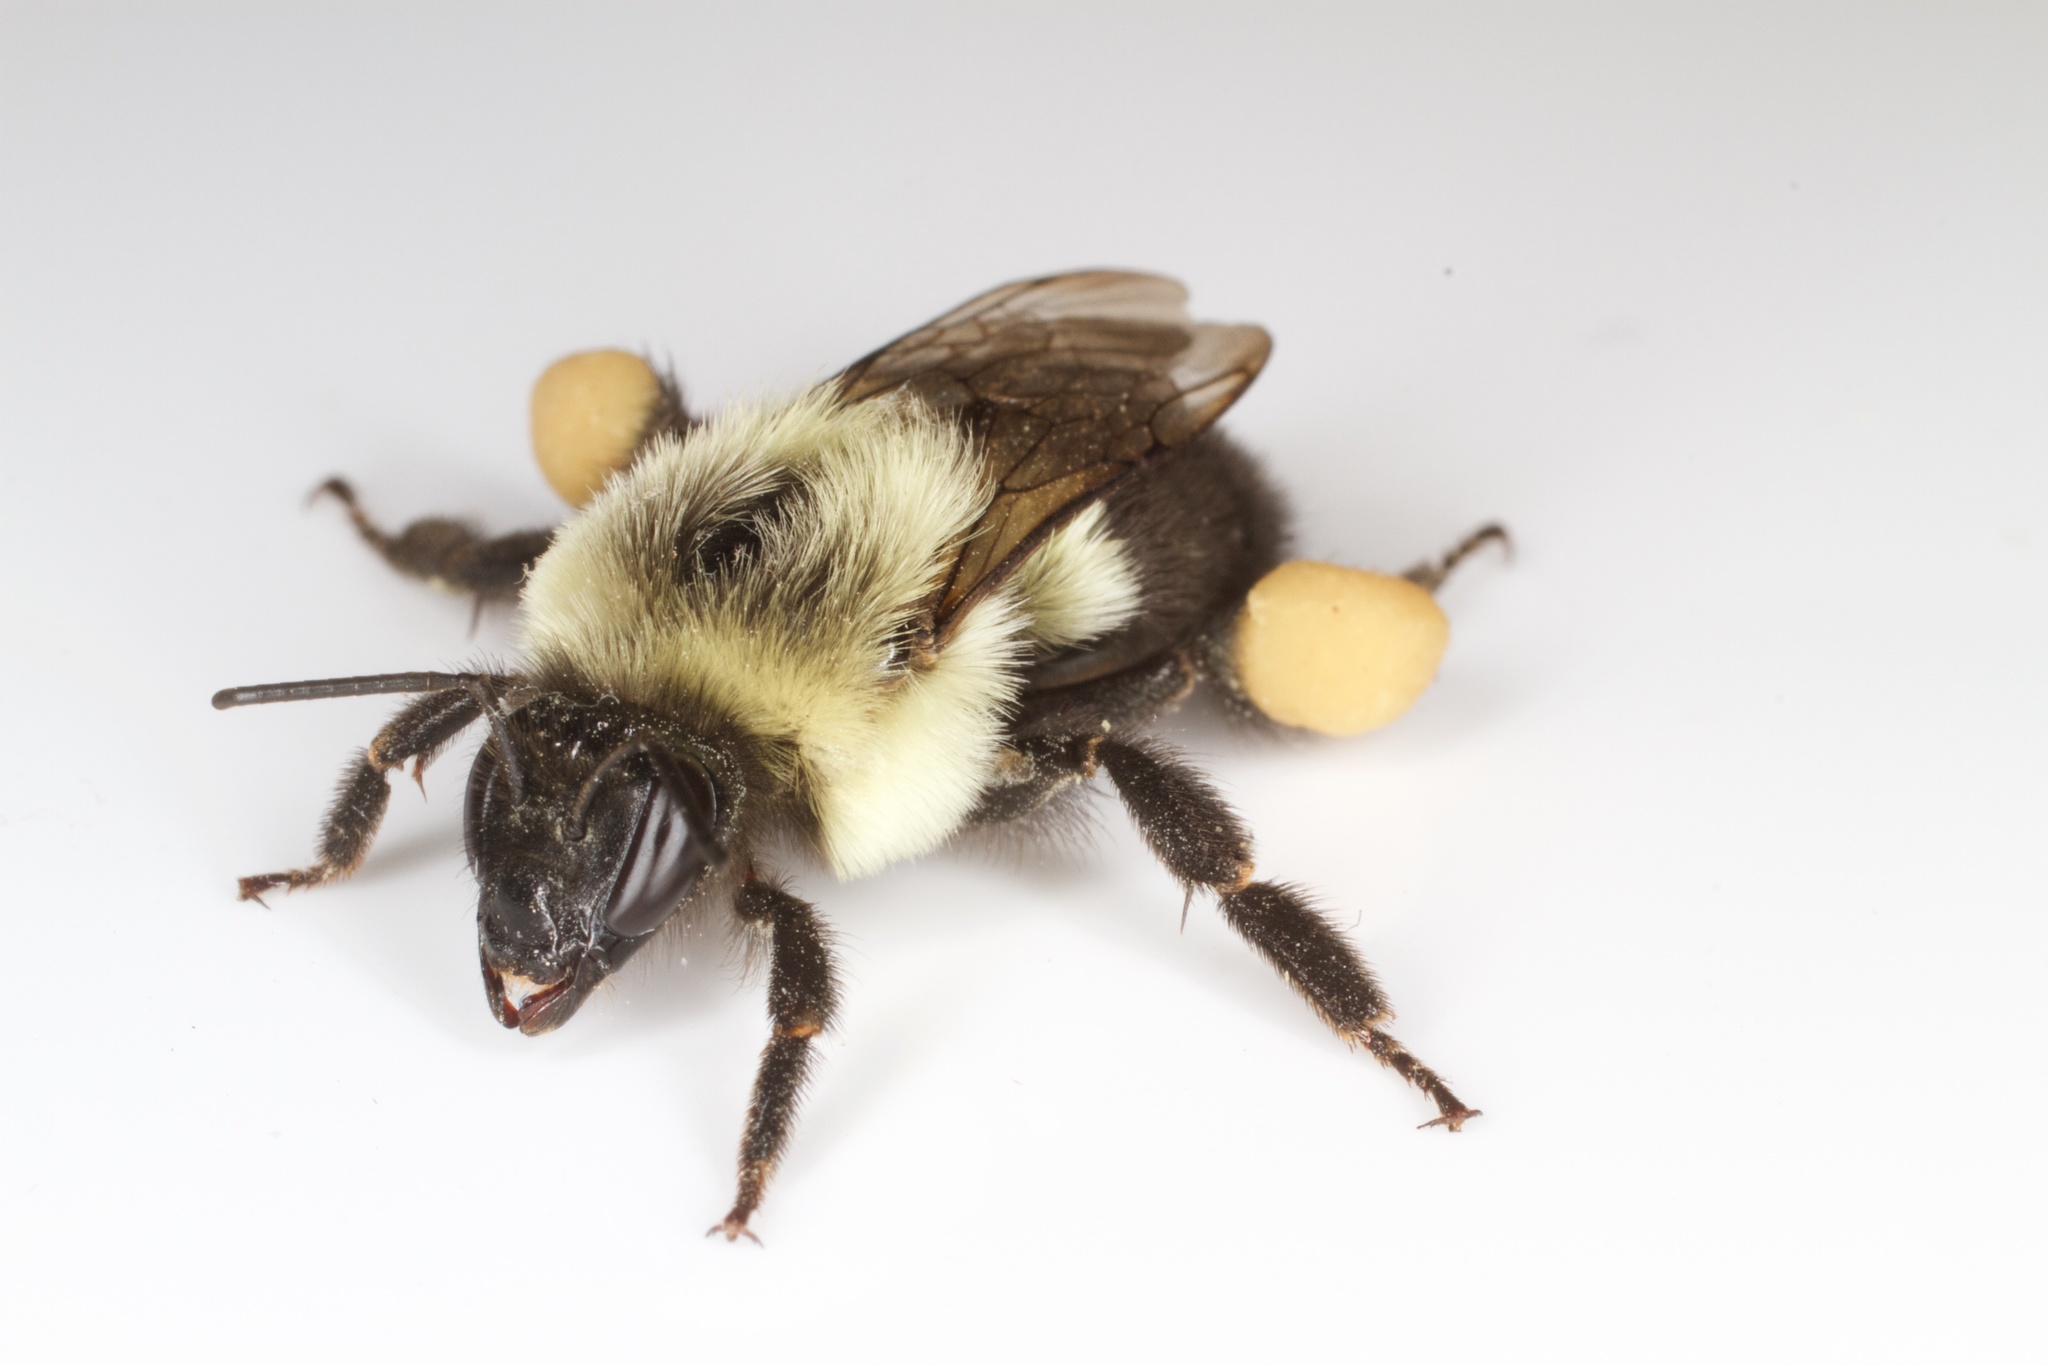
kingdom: Animalia
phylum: Arthropoda
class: Insecta
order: Hymenoptera
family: Apidae
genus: Bombus
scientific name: Bombus impatiens
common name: Common eastern bumble bee
